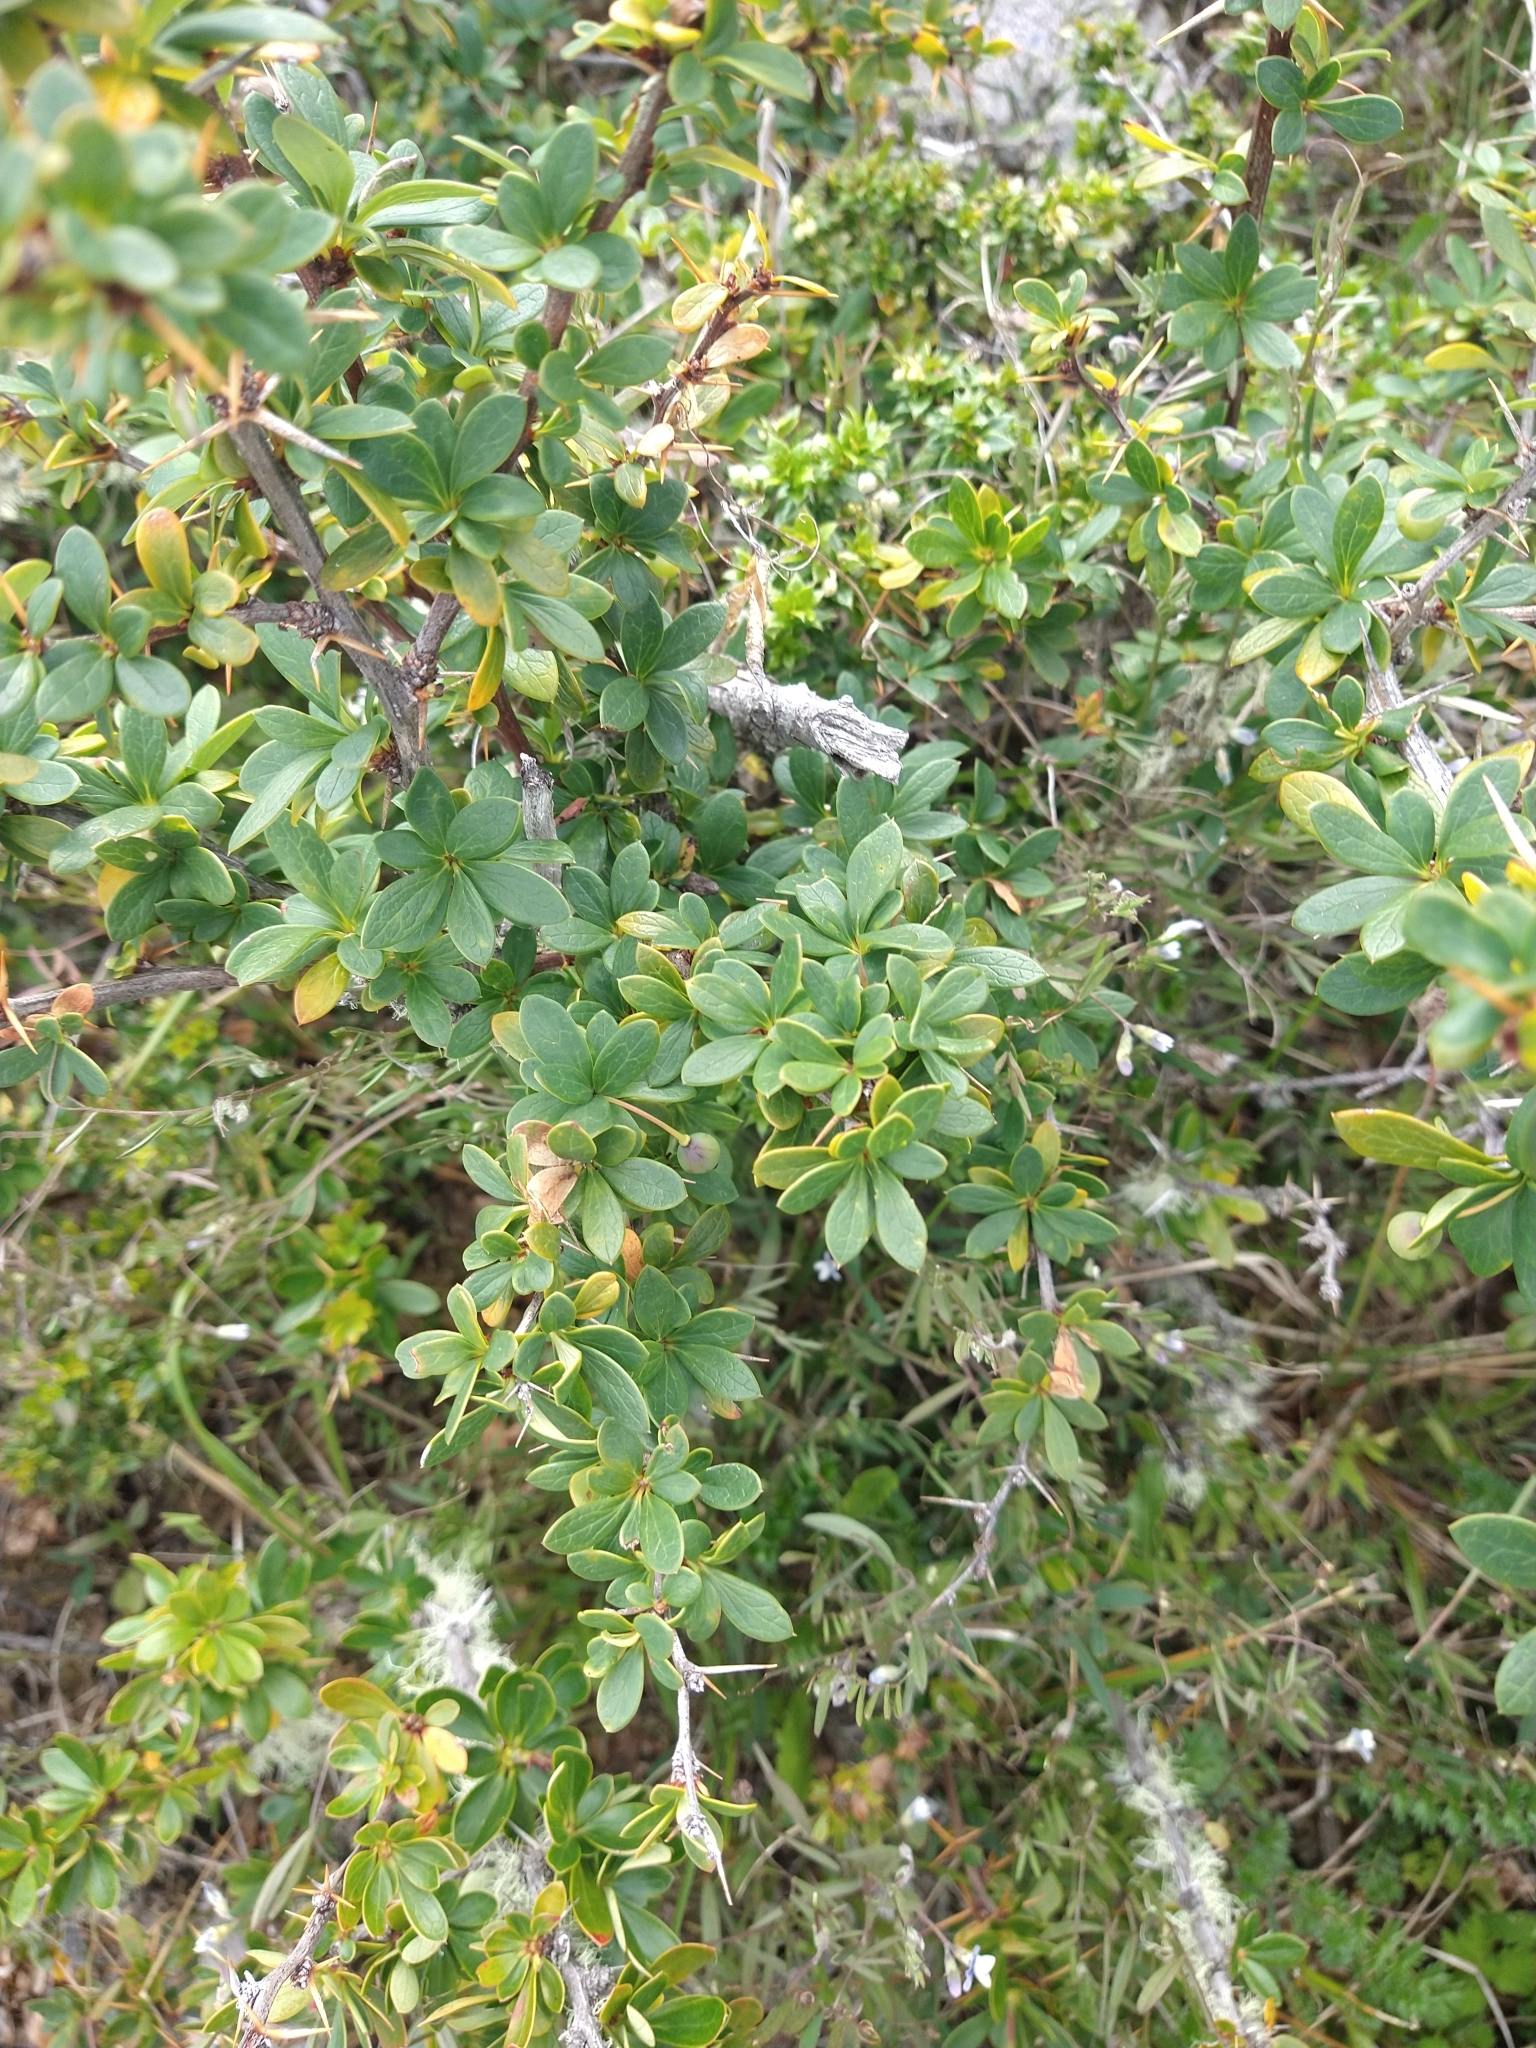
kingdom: Plantae
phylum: Tracheophyta
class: Magnoliopsida
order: Ranunculales
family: Berberidaceae
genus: Berberis
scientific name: Berberis microphylla
